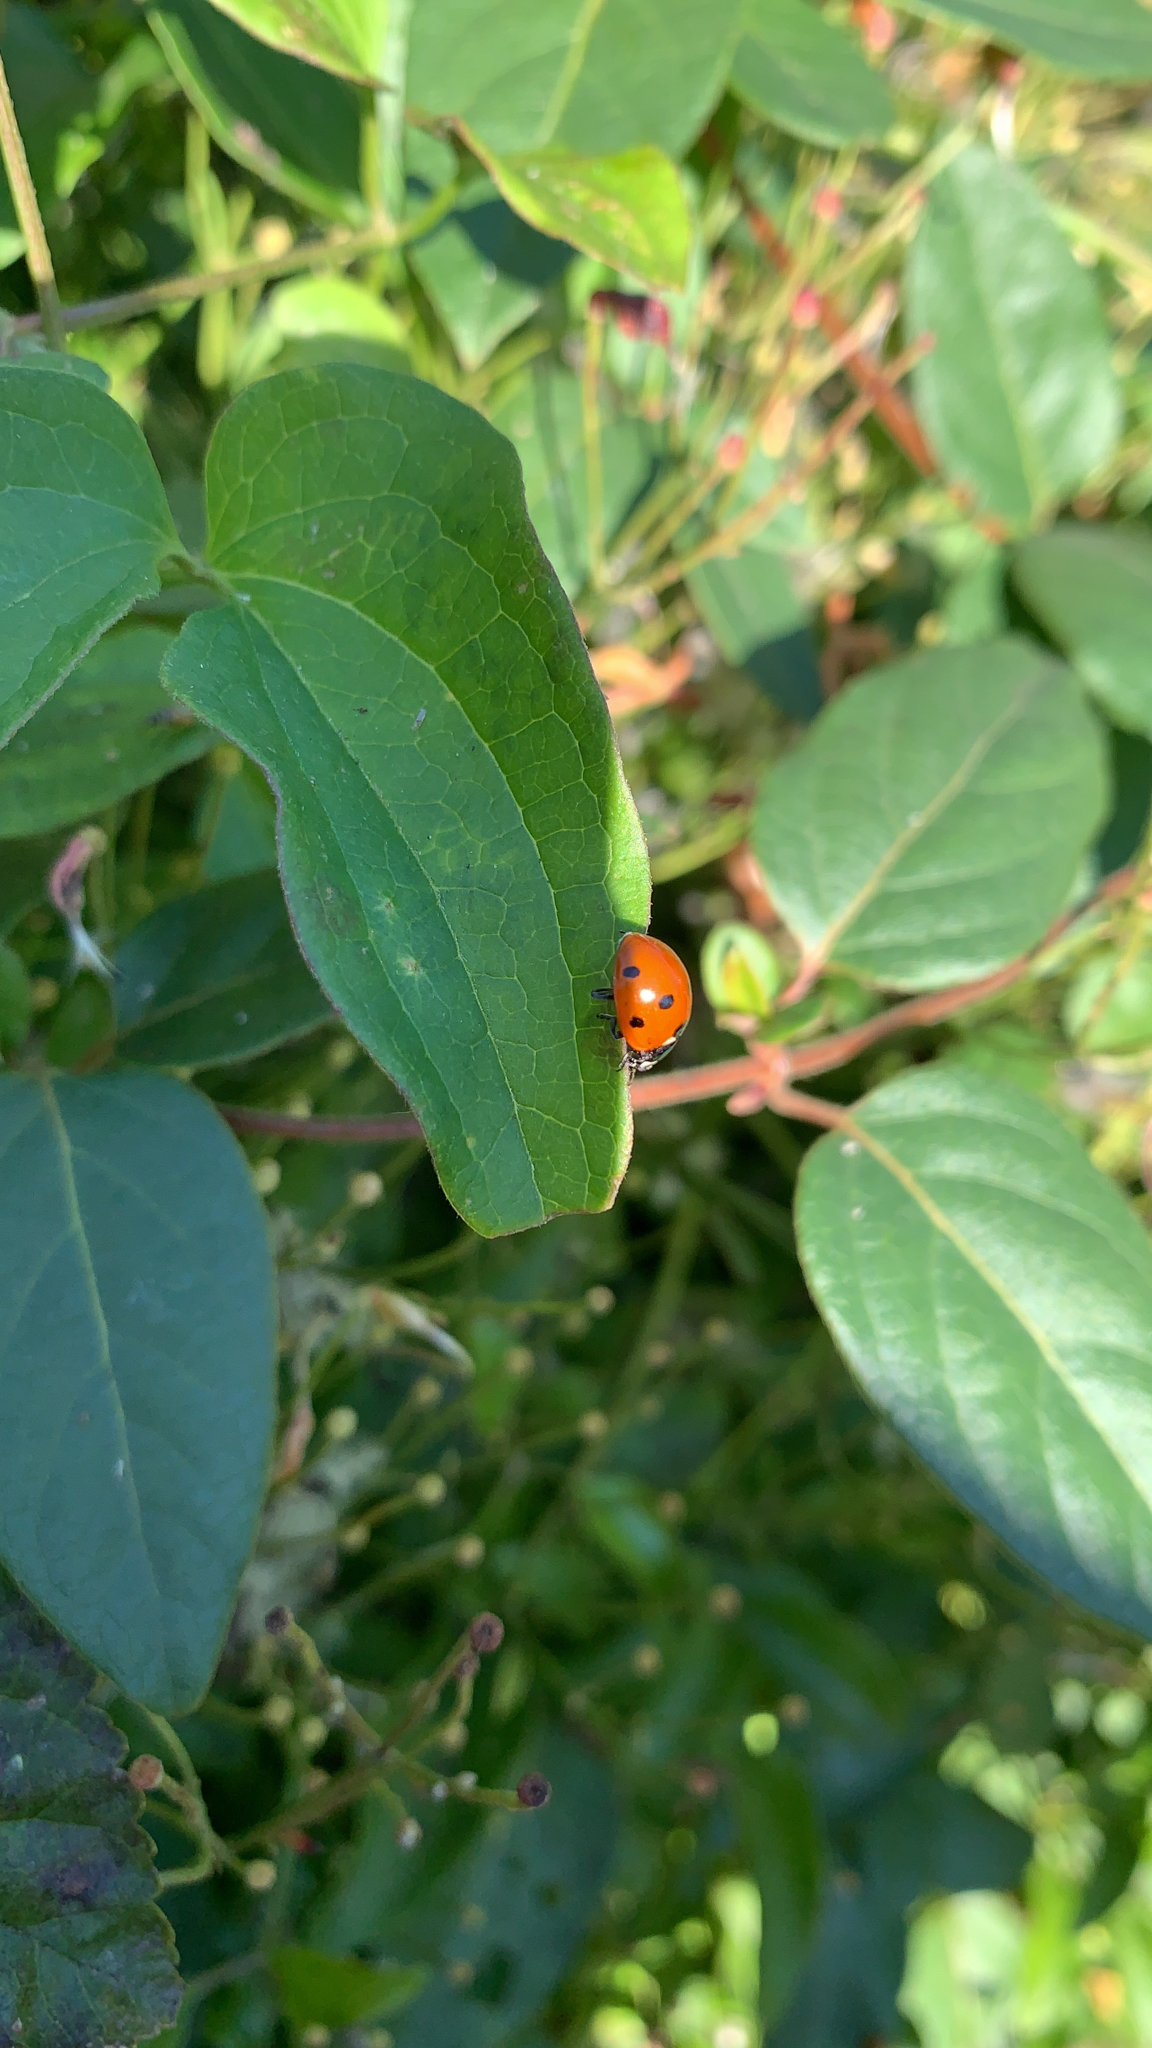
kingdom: Animalia
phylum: Arthropoda
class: Insecta
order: Coleoptera
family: Coccinellidae
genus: Coccinella
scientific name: Coccinella septempunctata
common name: Sevenspotted lady beetle
